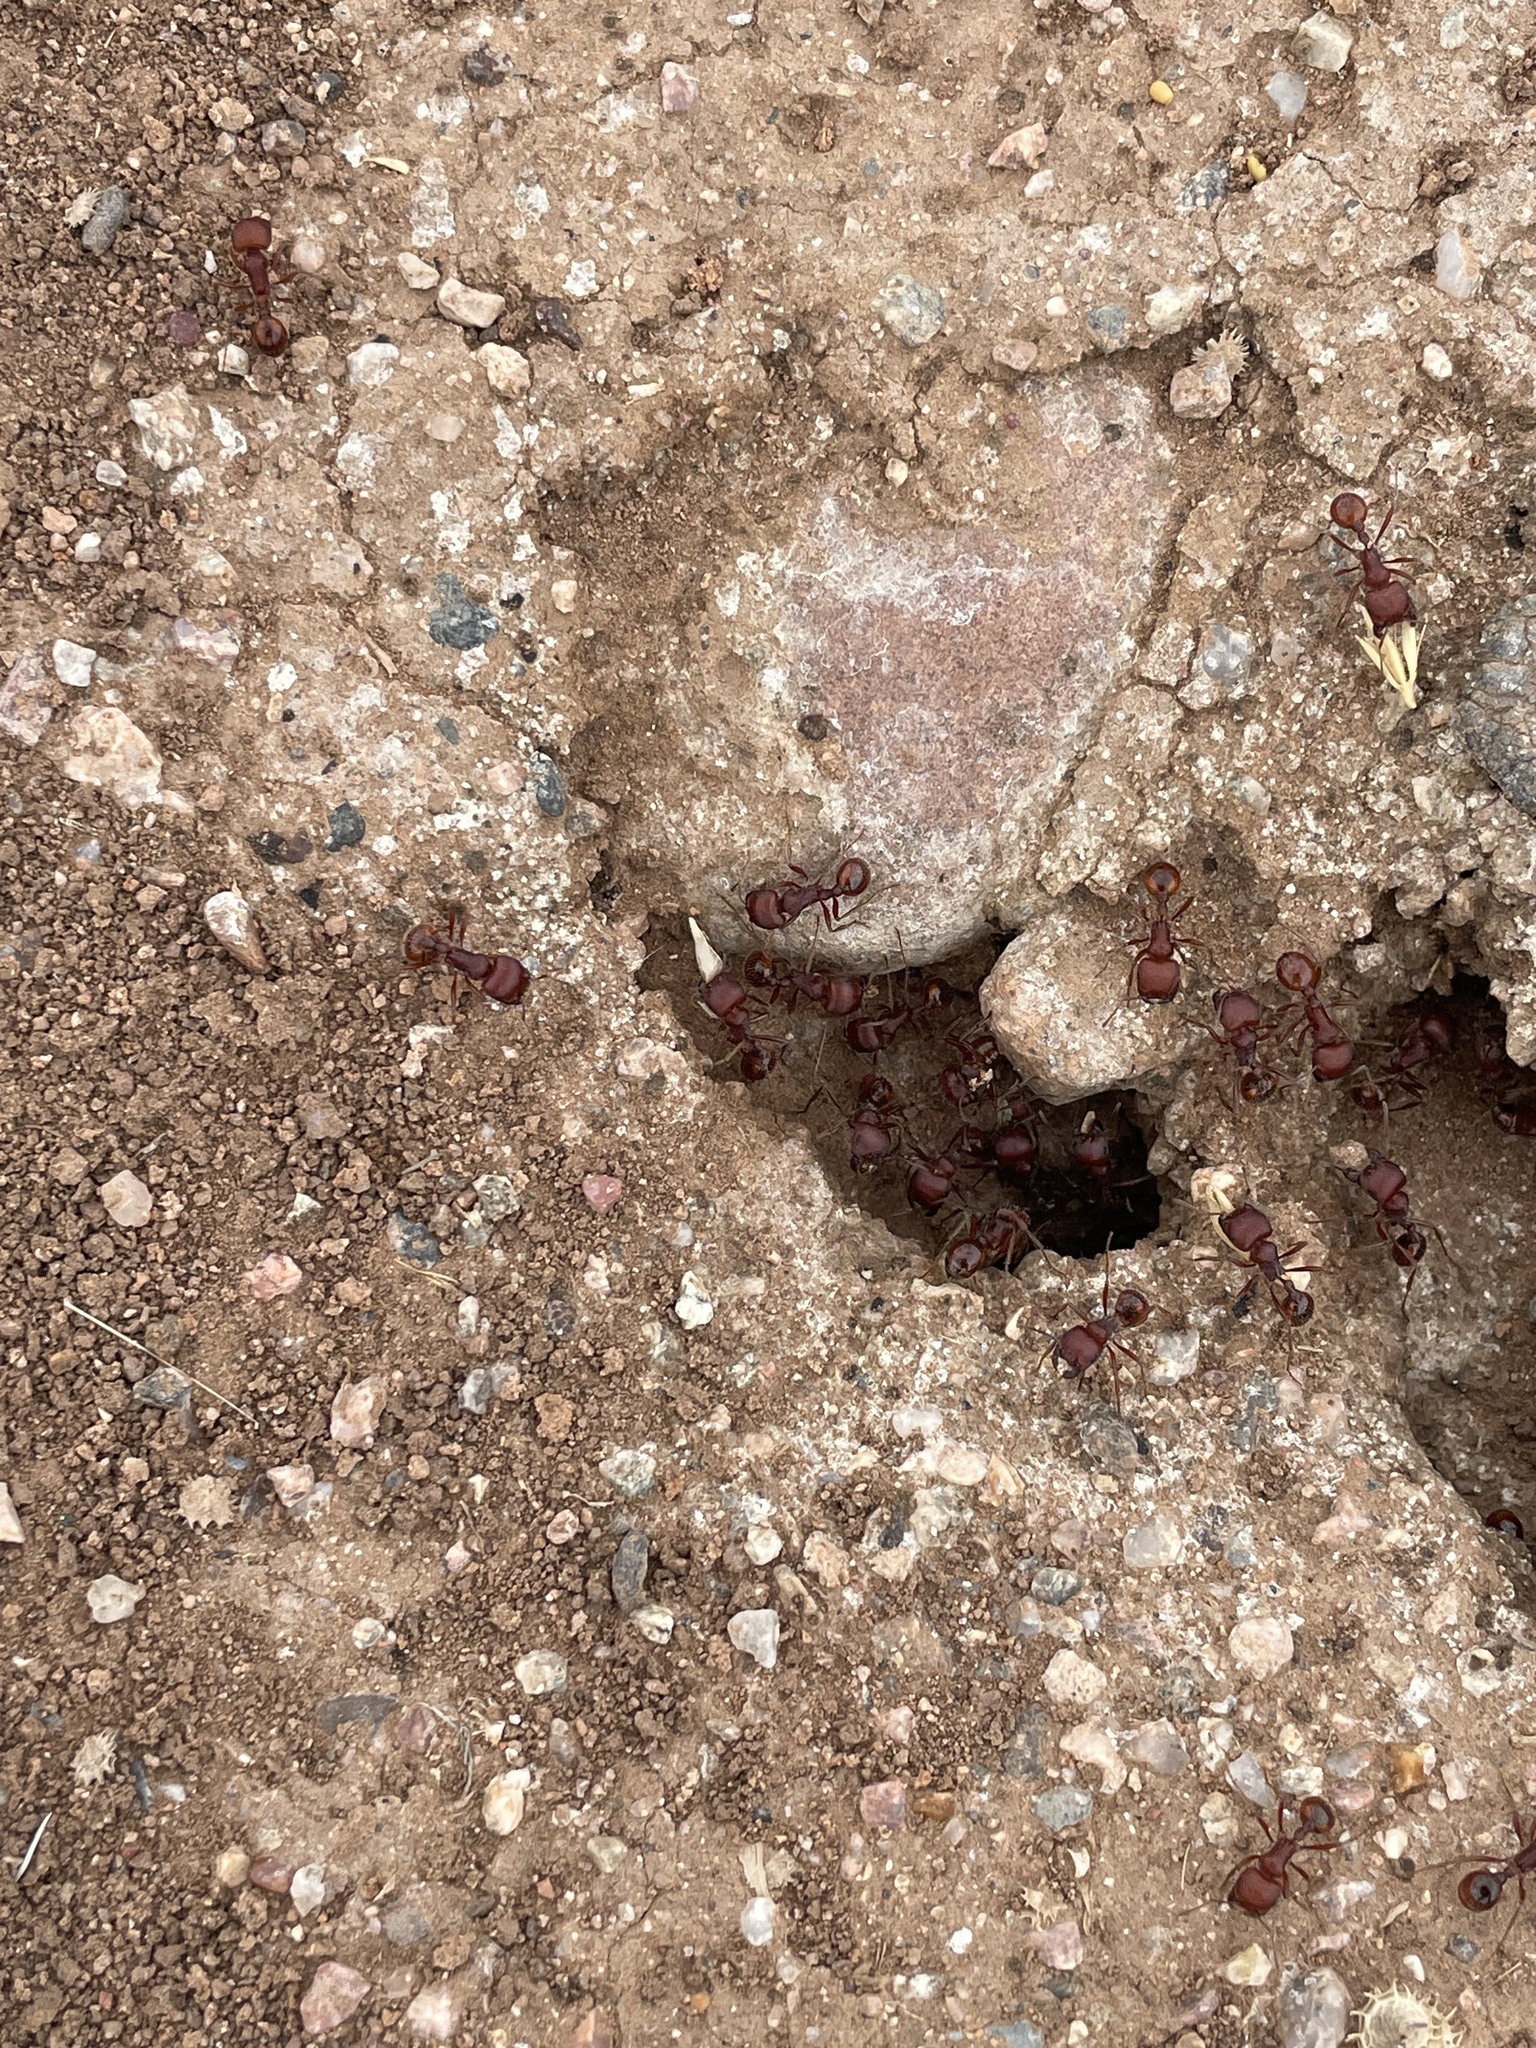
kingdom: Animalia
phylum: Arthropoda
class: Insecta
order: Hymenoptera
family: Formicidae
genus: Pogonomyrmex
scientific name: Pogonomyrmex barbatus
